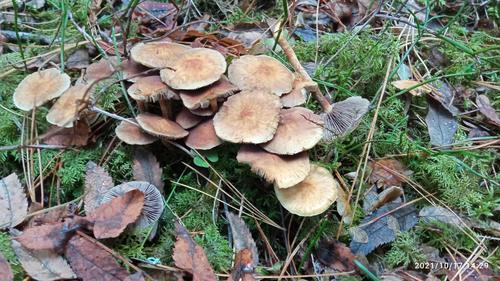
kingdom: Fungi
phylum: Basidiomycota
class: Agaricomycetes
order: Agaricales
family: Strophariaceae
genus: Hypholoma
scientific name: Hypholoma capnoides
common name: Conifer tuft
